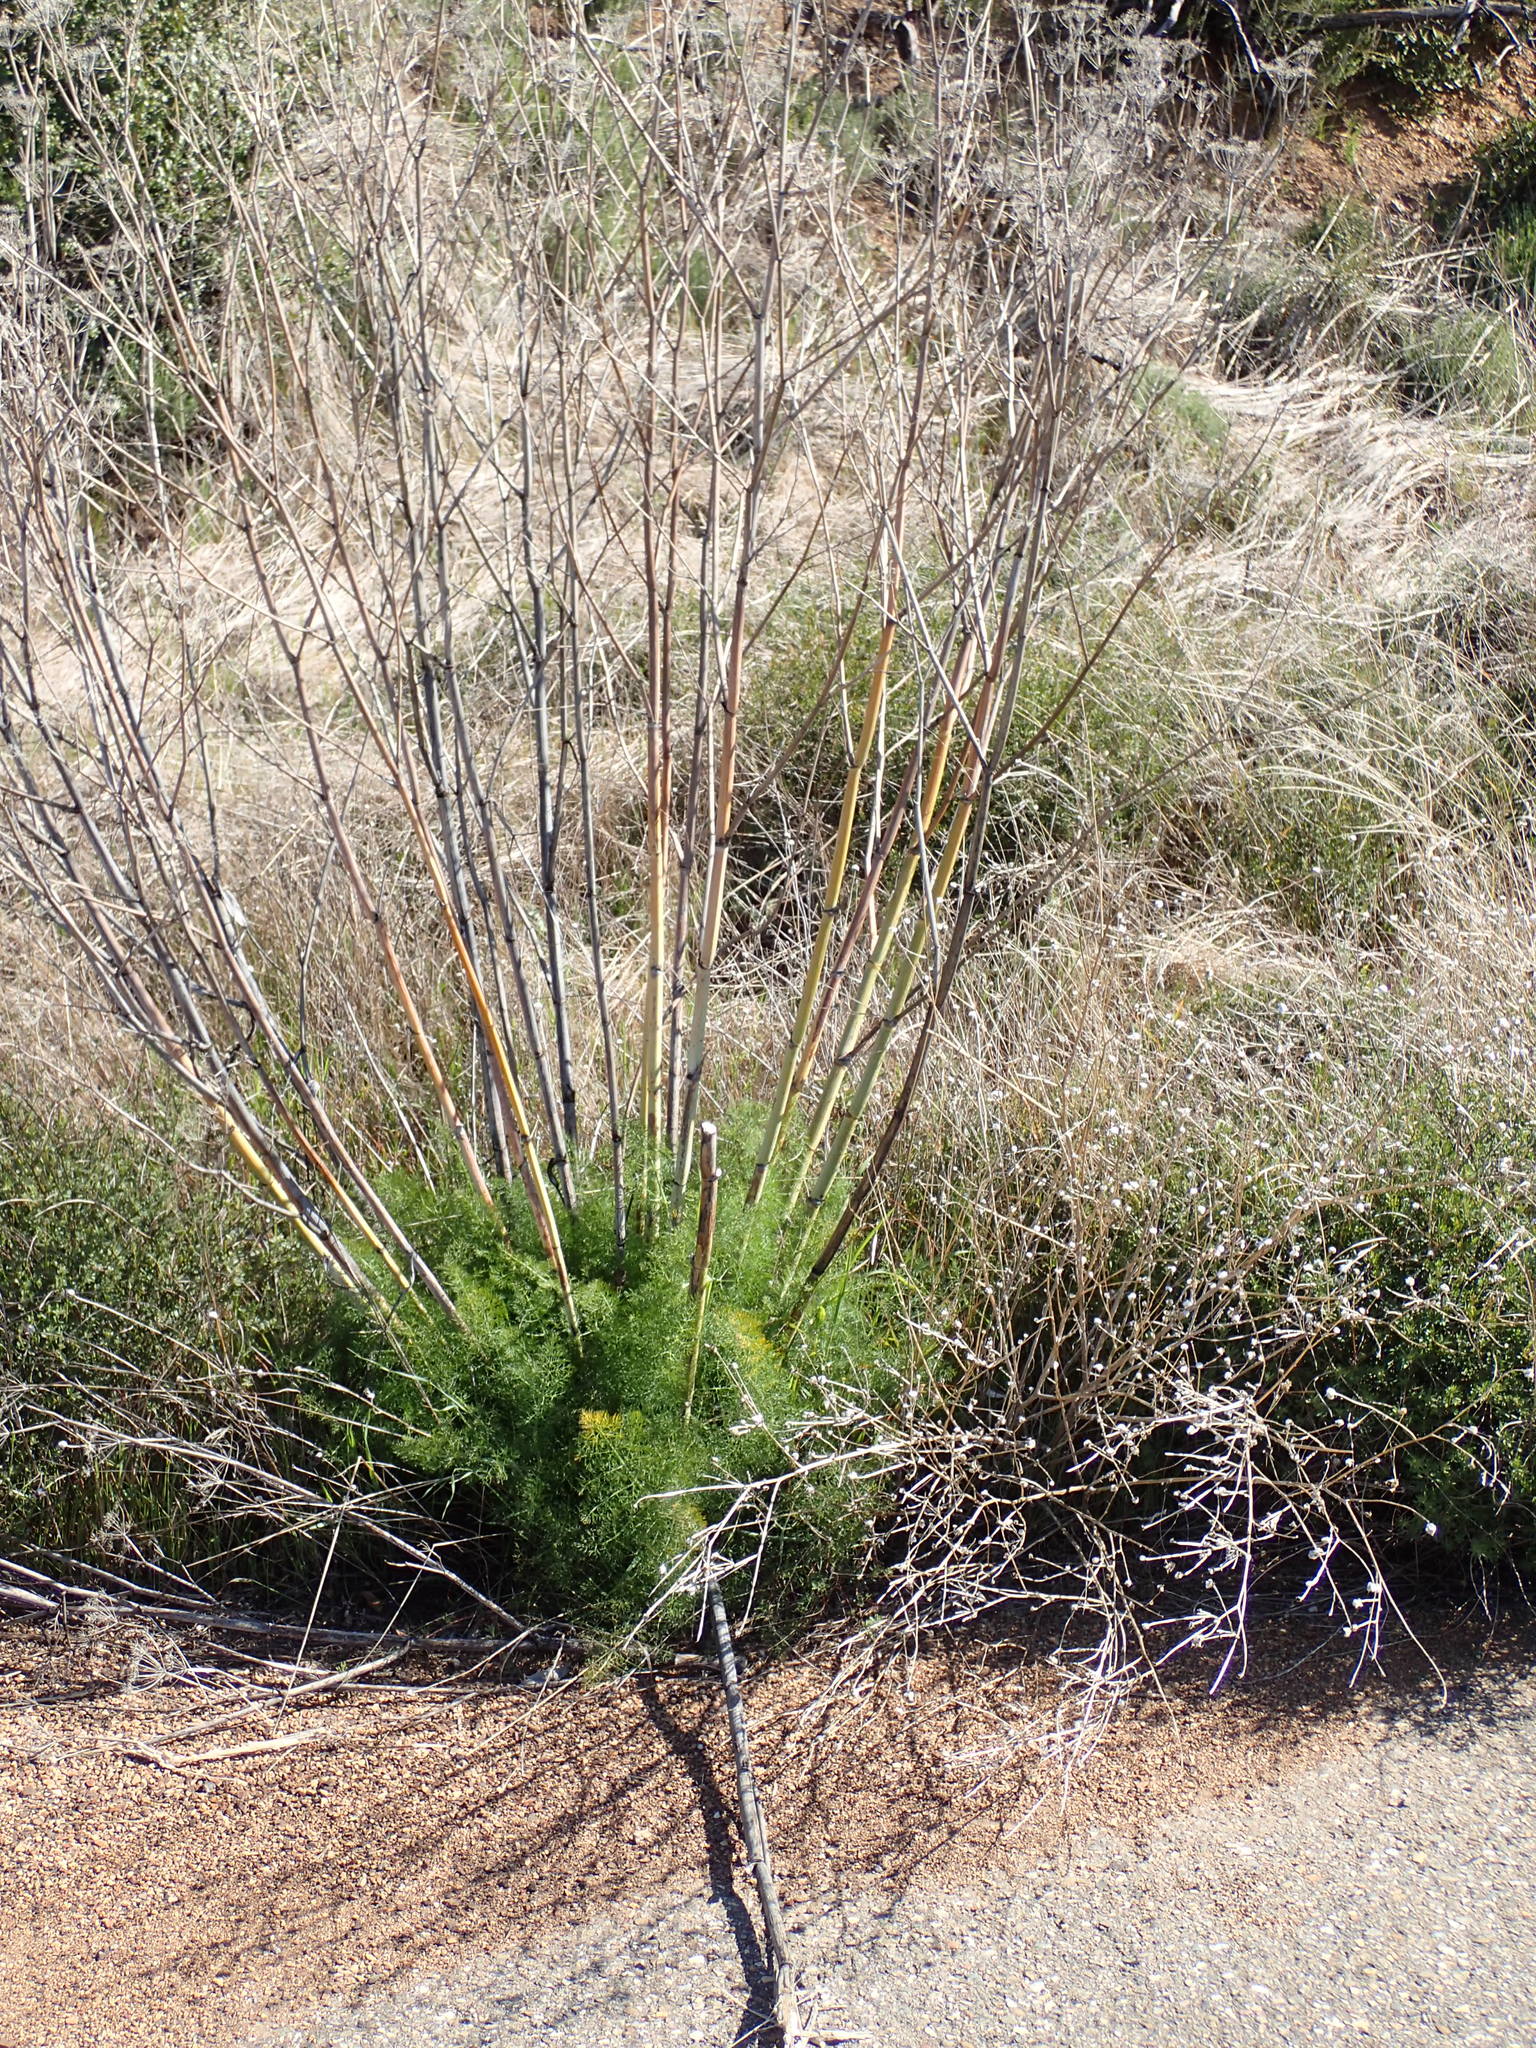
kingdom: Plantae
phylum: Tracheophyta
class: Magnoliopsida
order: Apiales
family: Apiaceae
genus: Foeniculum
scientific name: Foeniculum vulgare
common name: Fennel
